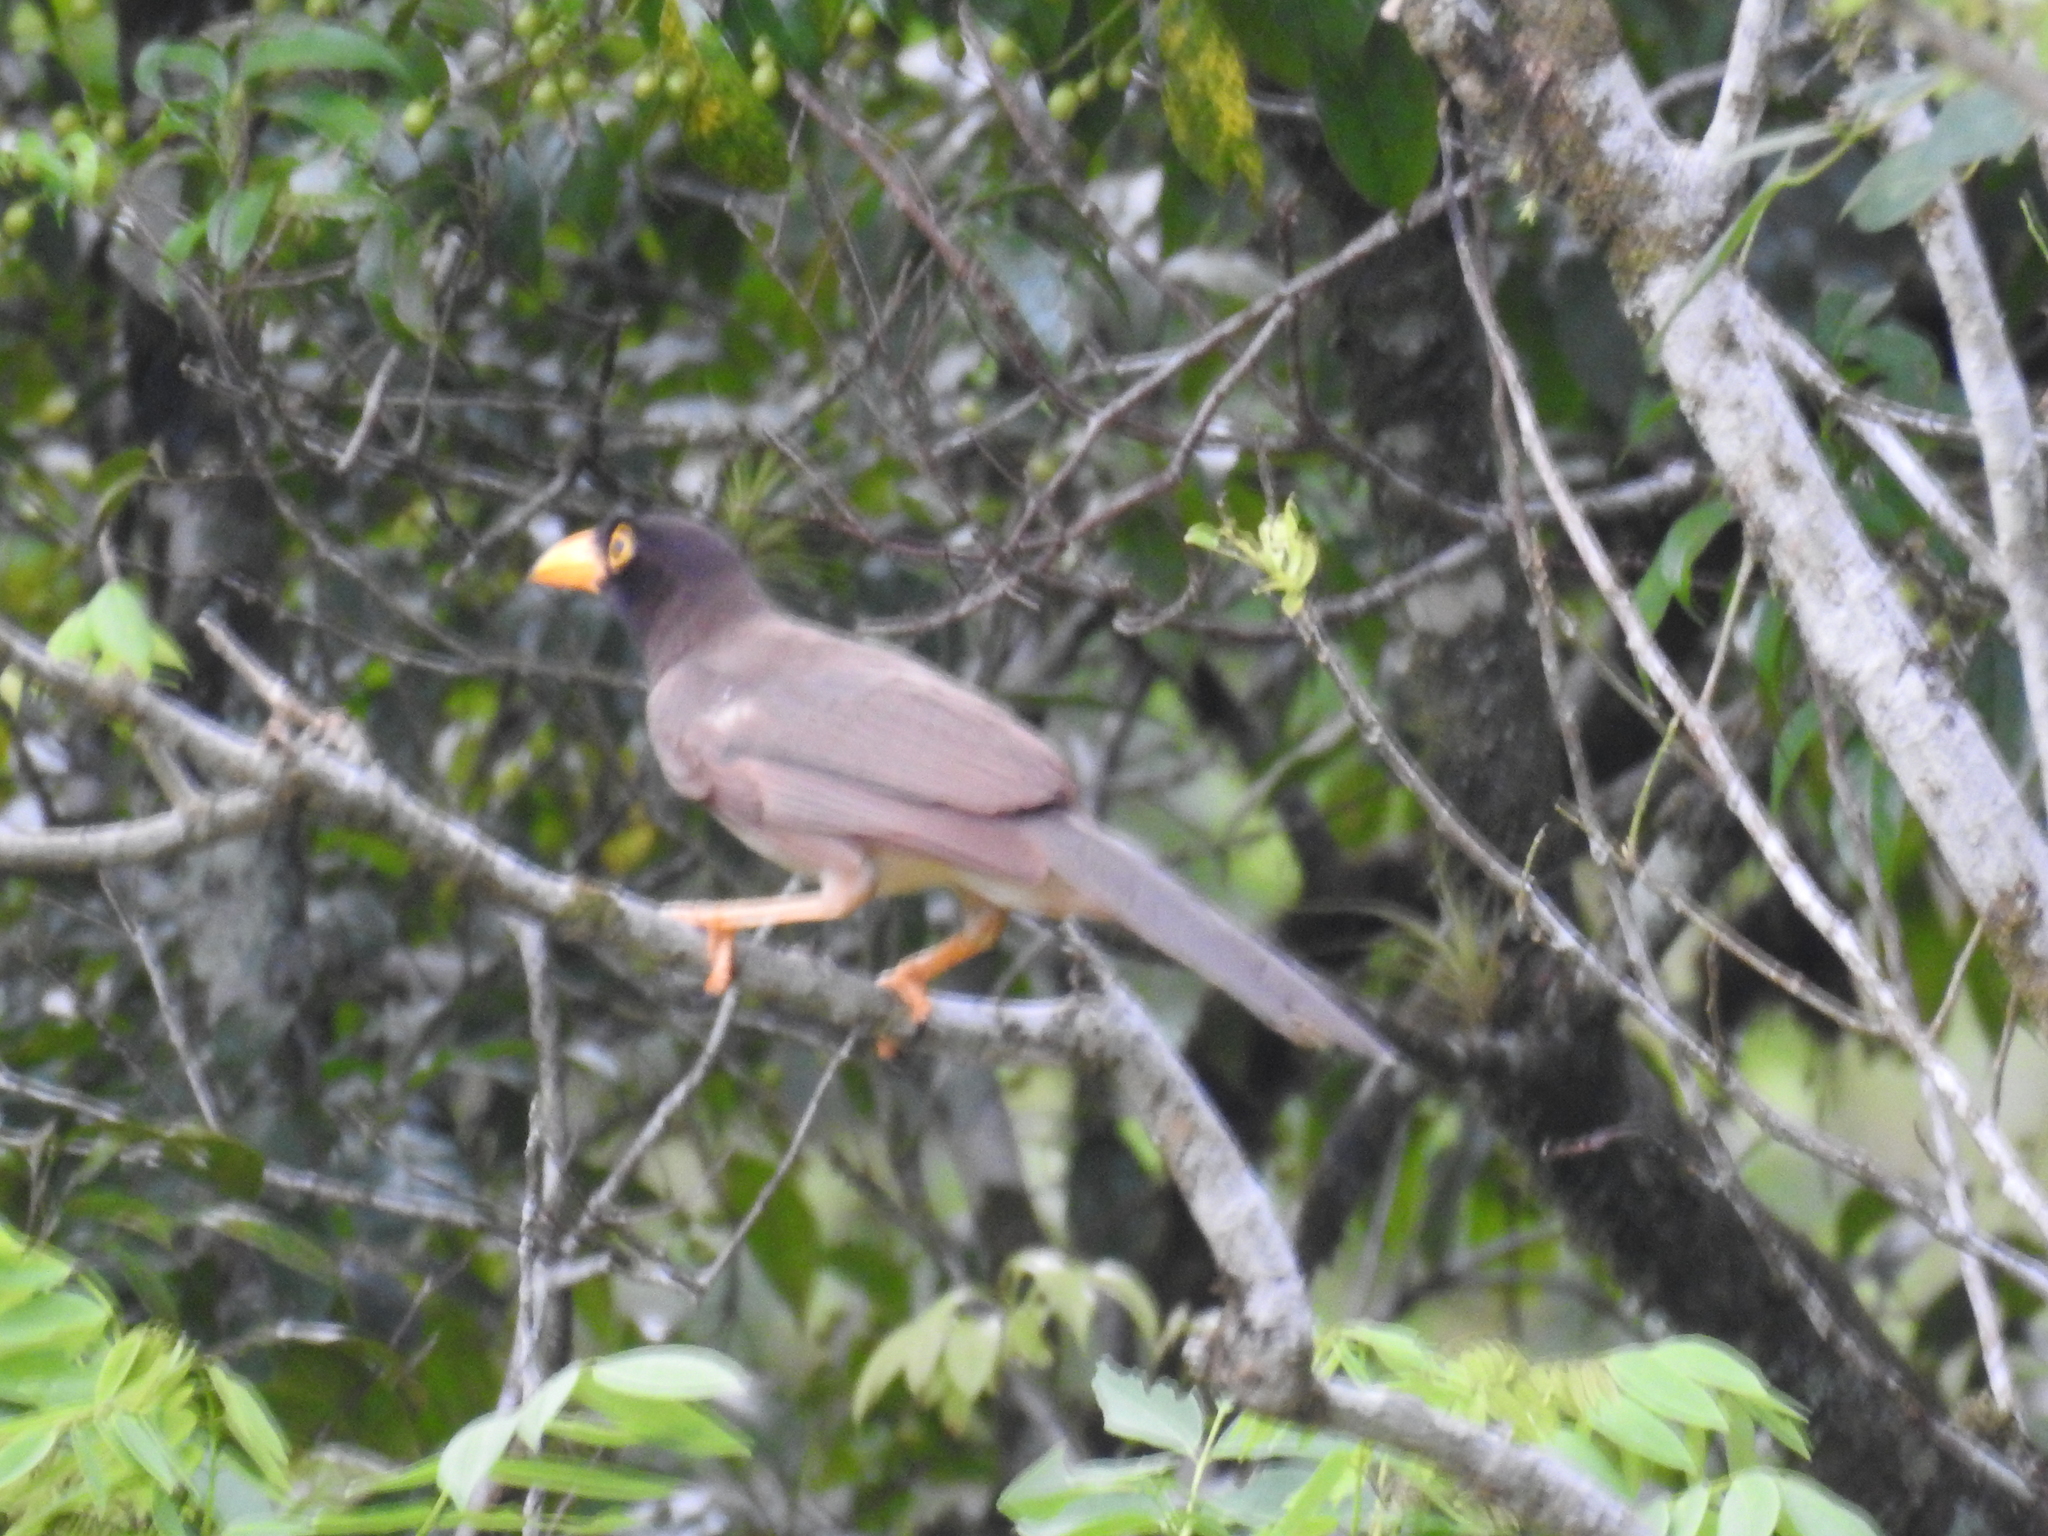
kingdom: Animalia
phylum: Chordata
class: Aves
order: Passeriformes
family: Corvidae
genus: Psilorhinus
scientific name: Psilorhinus morio
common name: Brown jay
